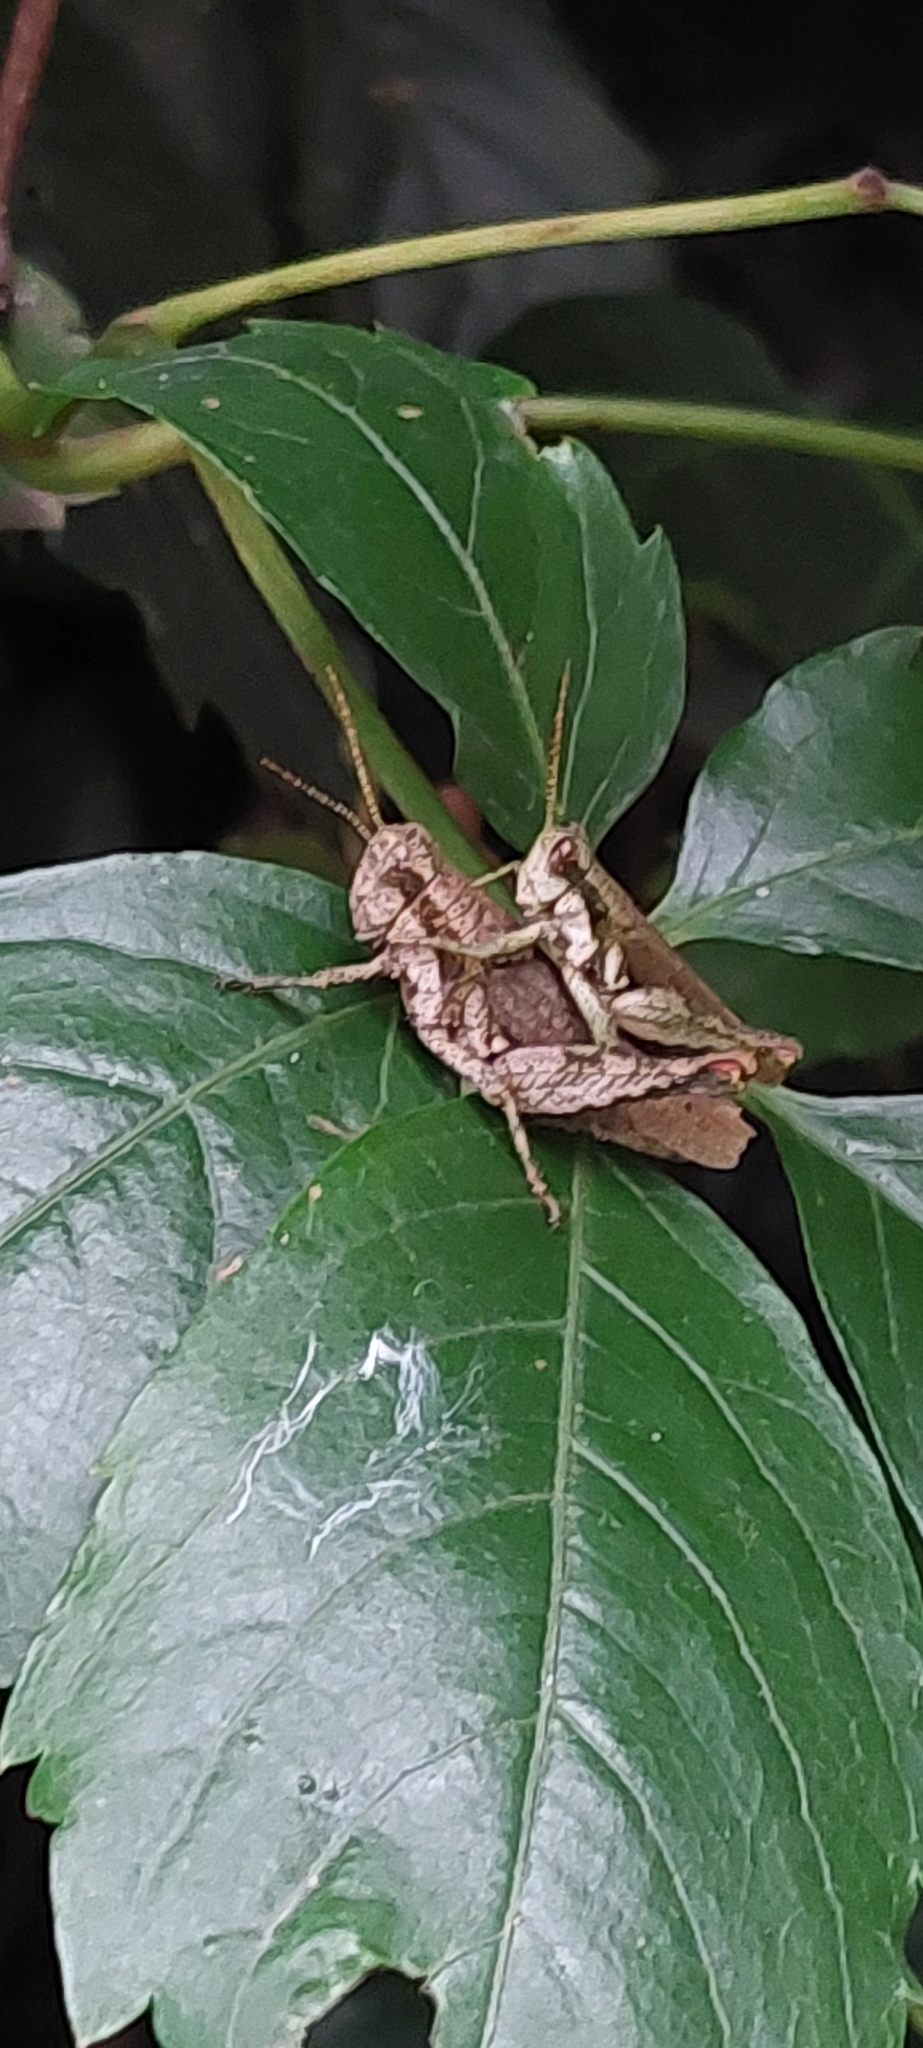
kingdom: Animalia
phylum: Arthropoda
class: Insecta
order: Orthoptera
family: Acrididae
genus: Ronderosia
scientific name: Ronderosia bergii
